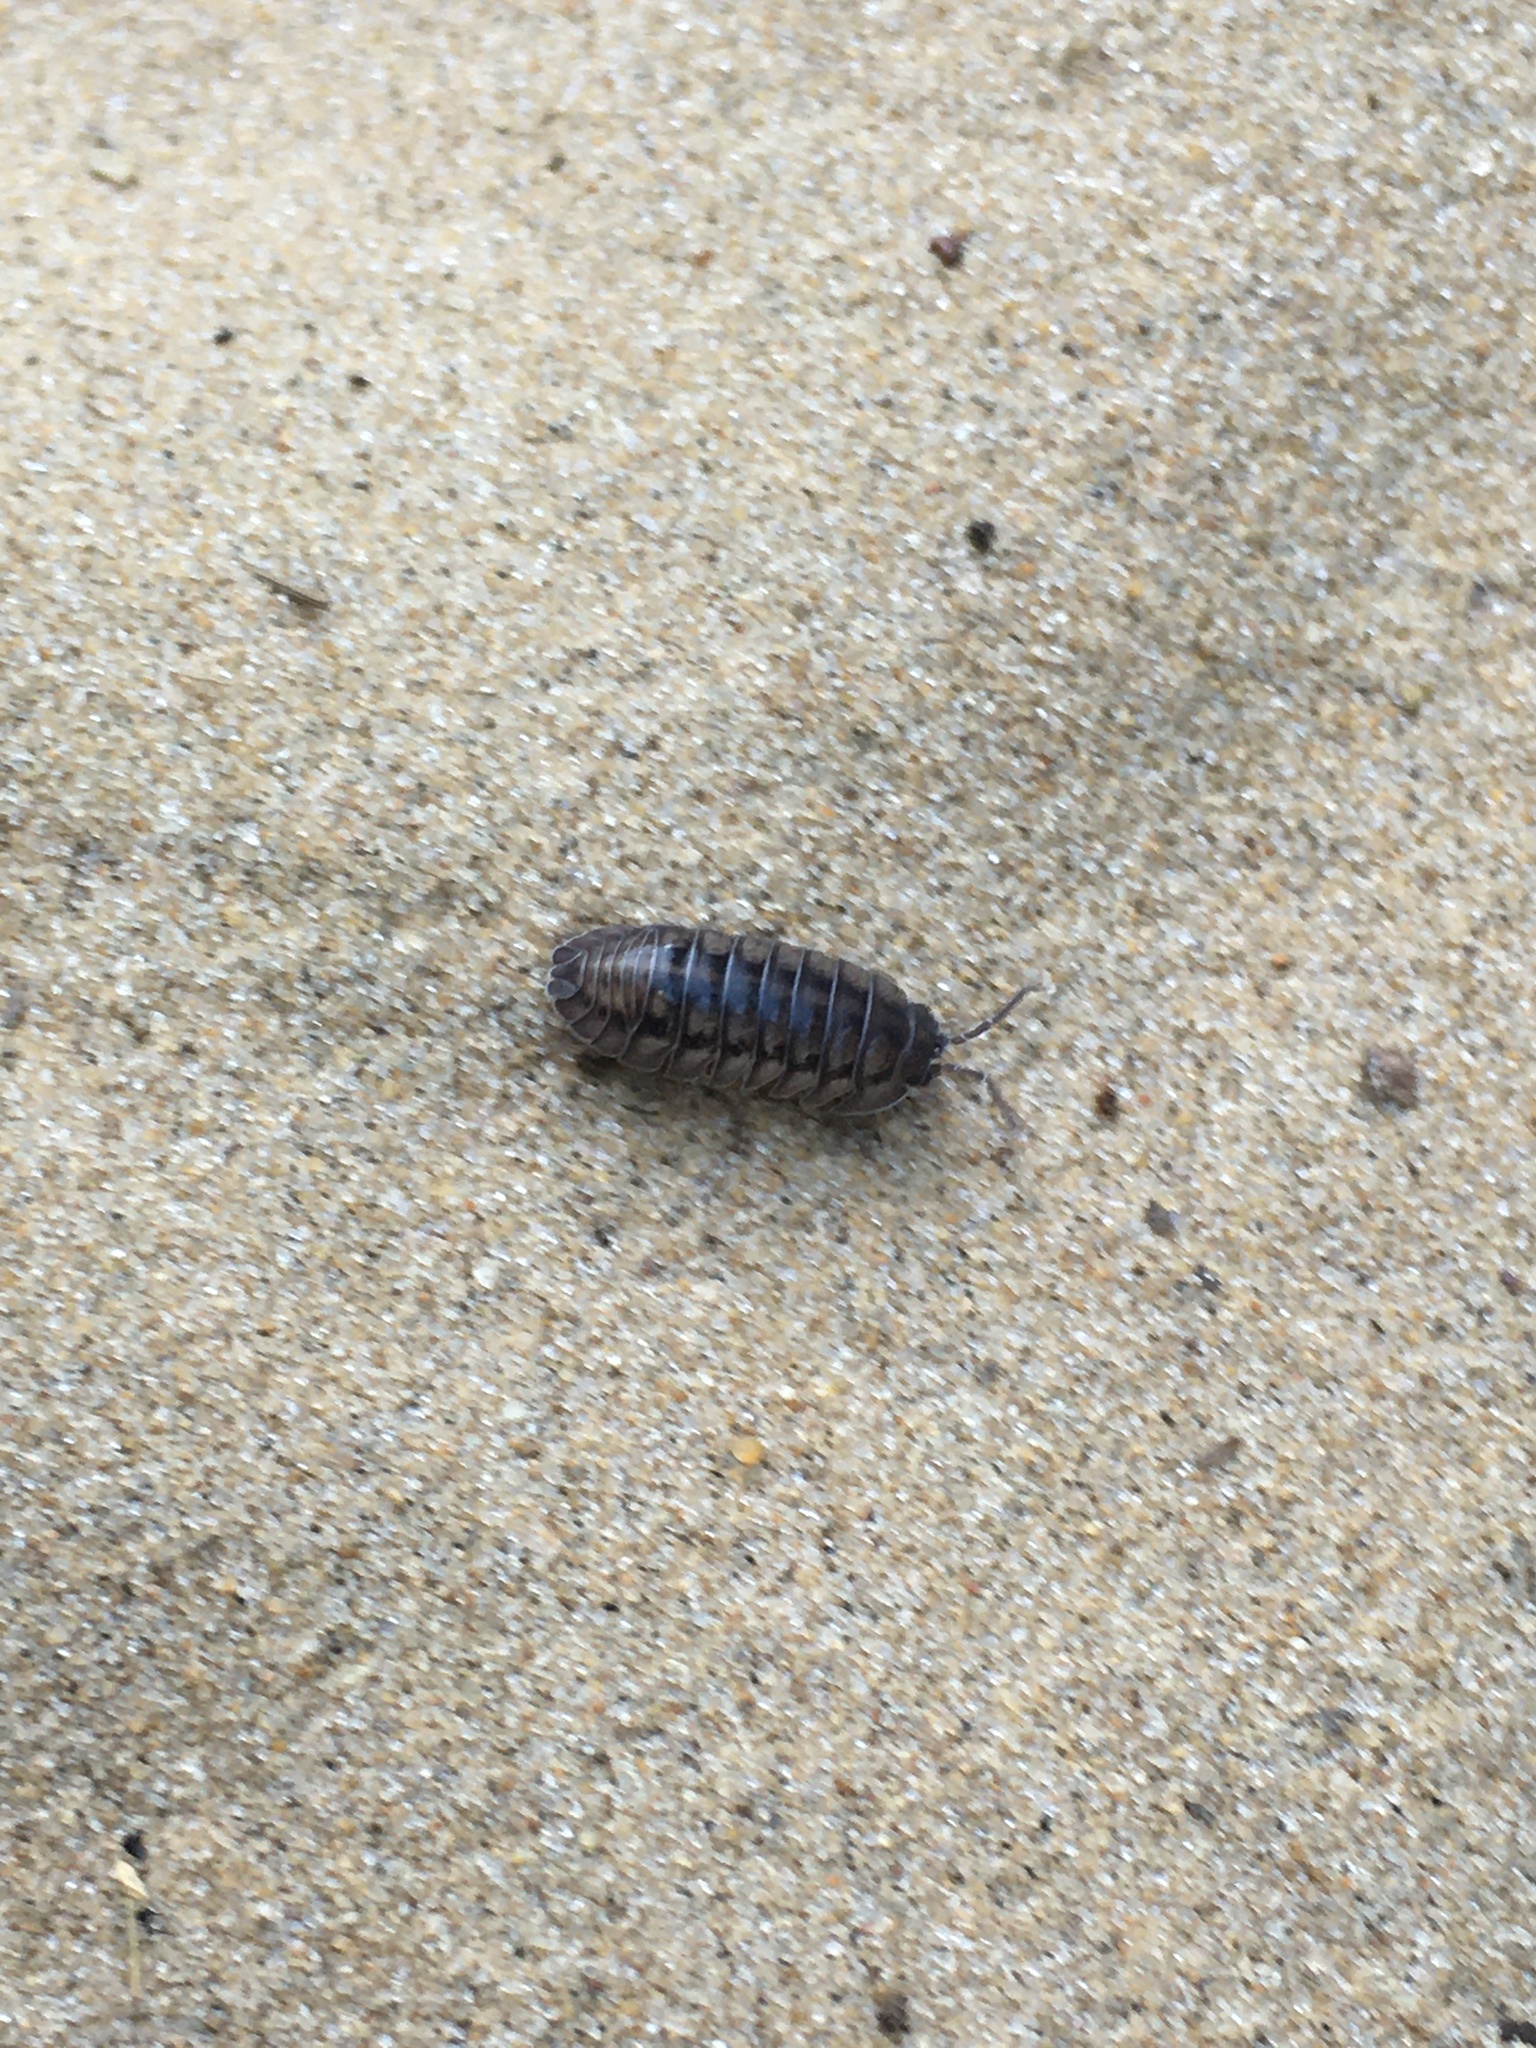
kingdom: Animalia
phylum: Arthropoda
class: Malacostraca
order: Isopoda
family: Armadillidiidae
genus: Armadillidium
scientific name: Armadillidium nasatum
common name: Isopod
